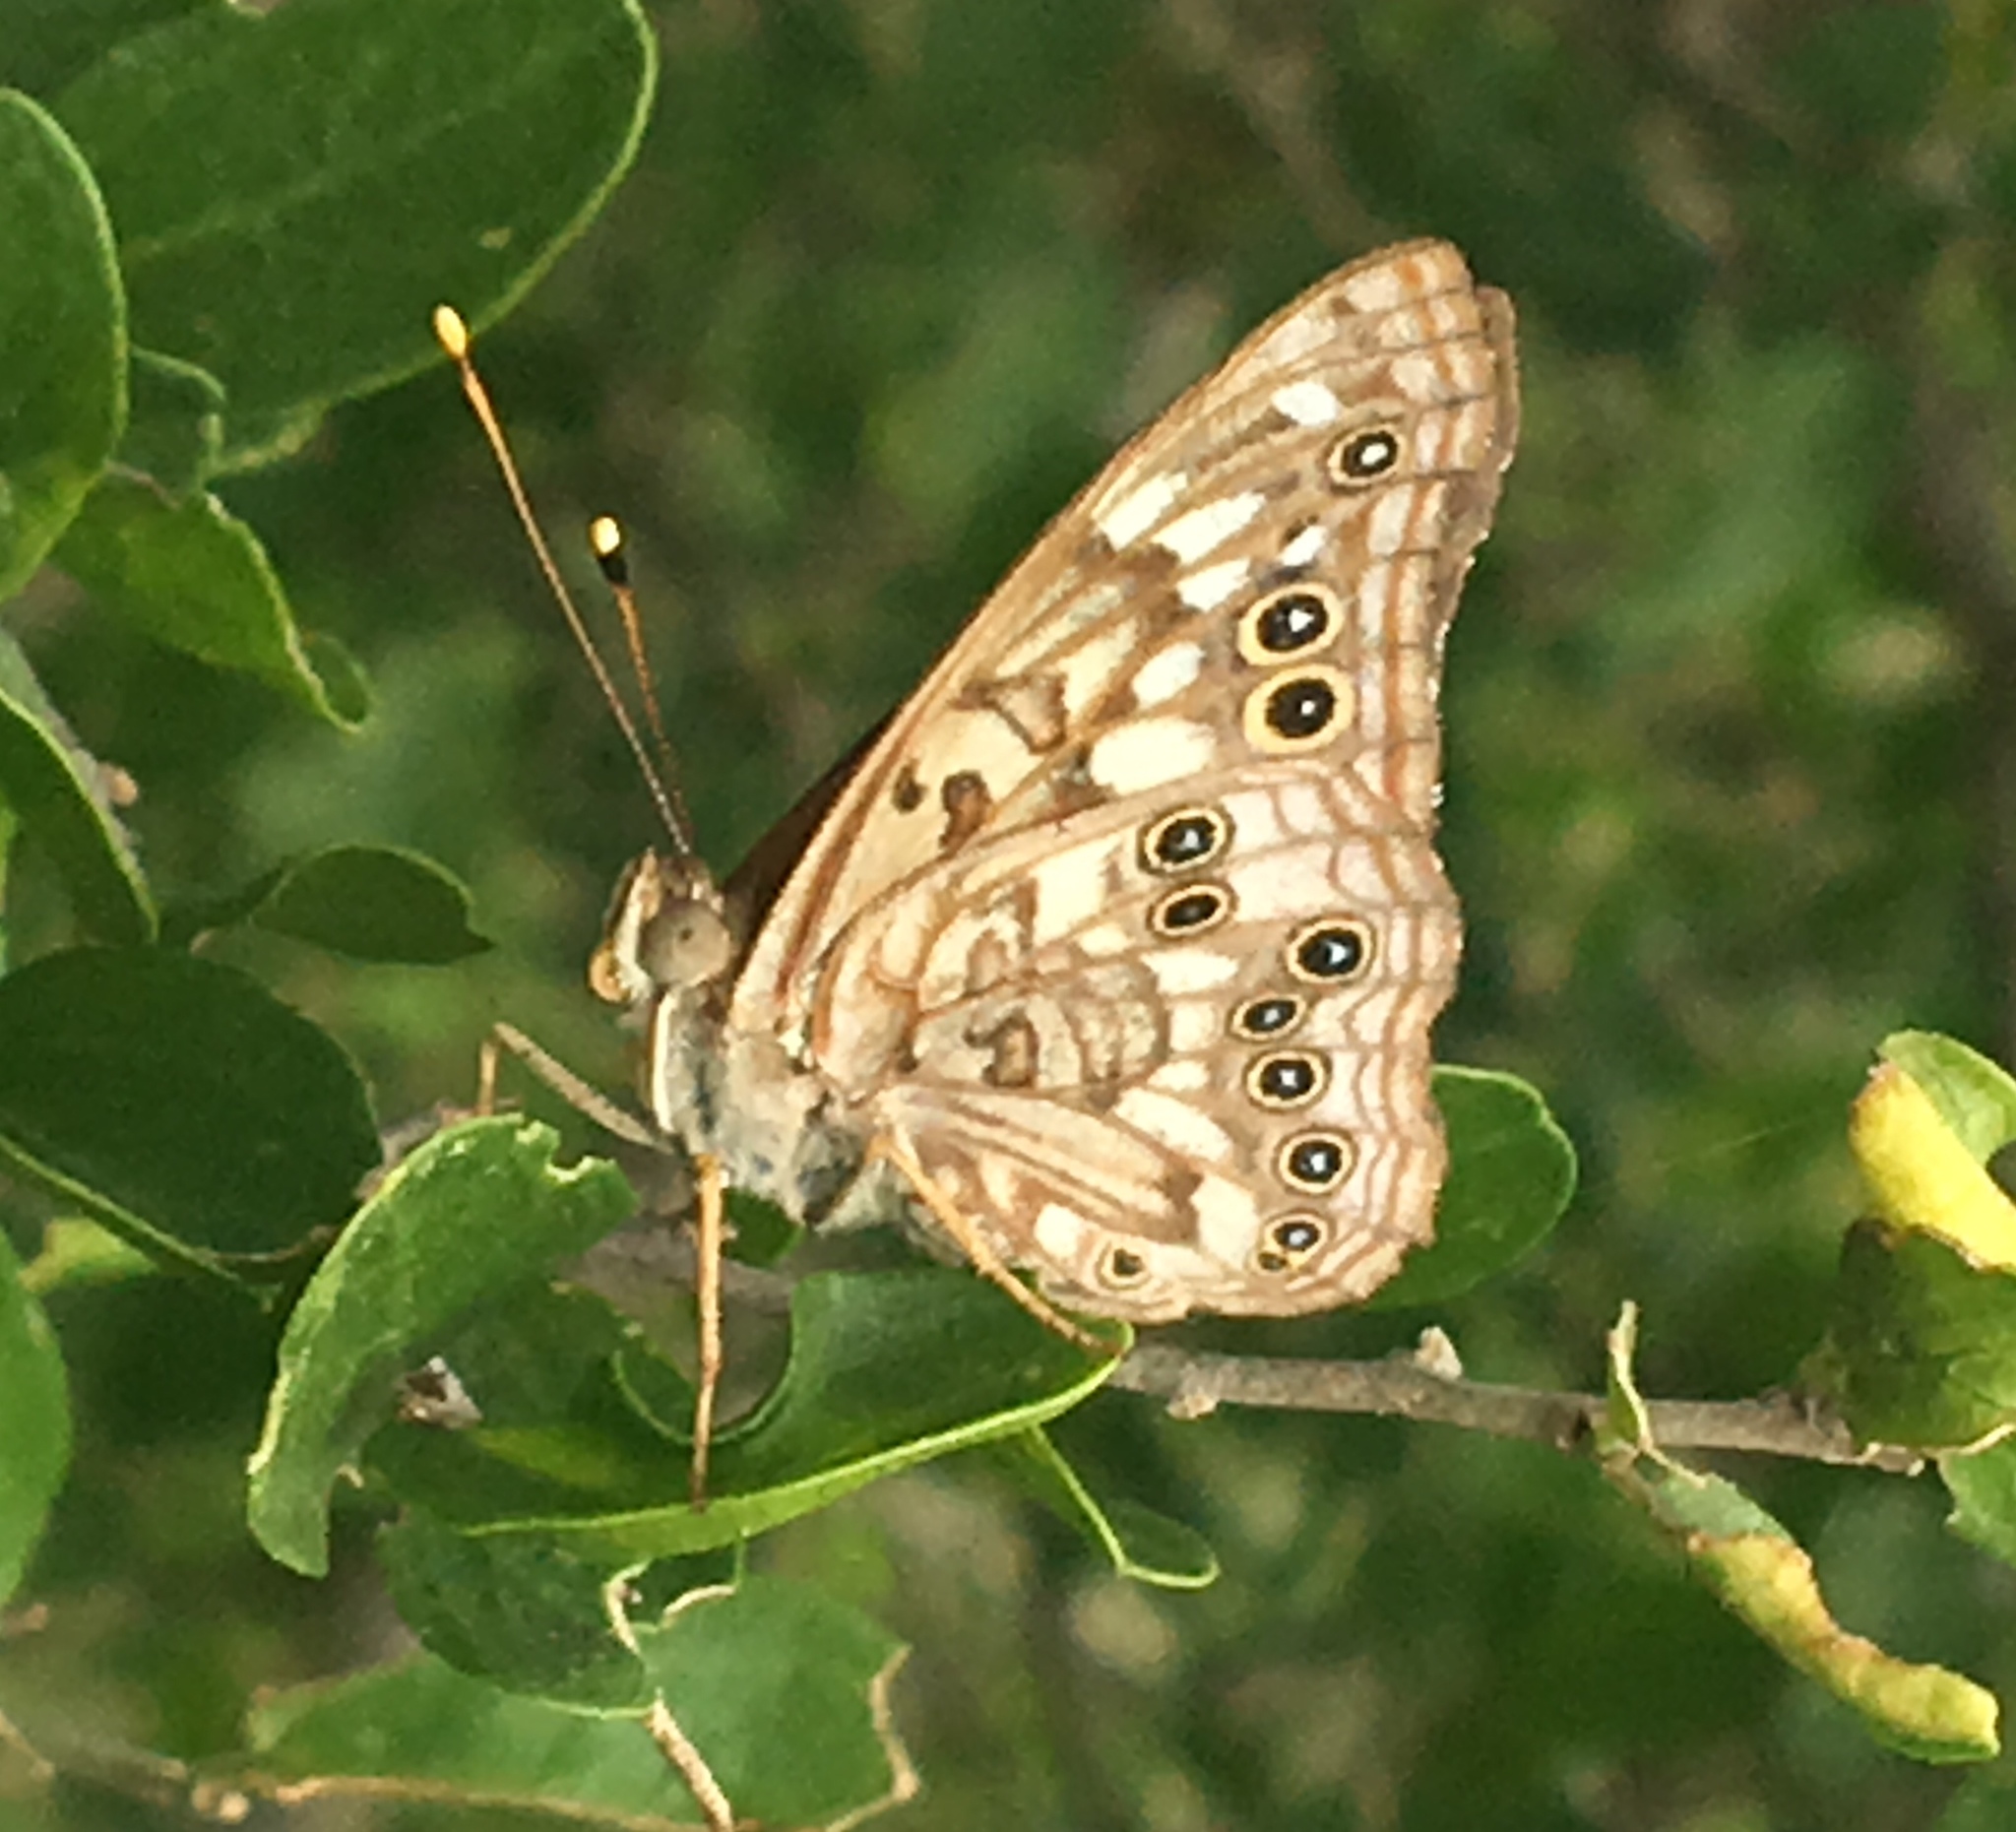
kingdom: Animalia
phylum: Arthropoda
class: Insecta
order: Lepidoptera
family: Nymphalidae
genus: Asterocampa
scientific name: Asterocampa celtis
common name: Hackberry emperor
